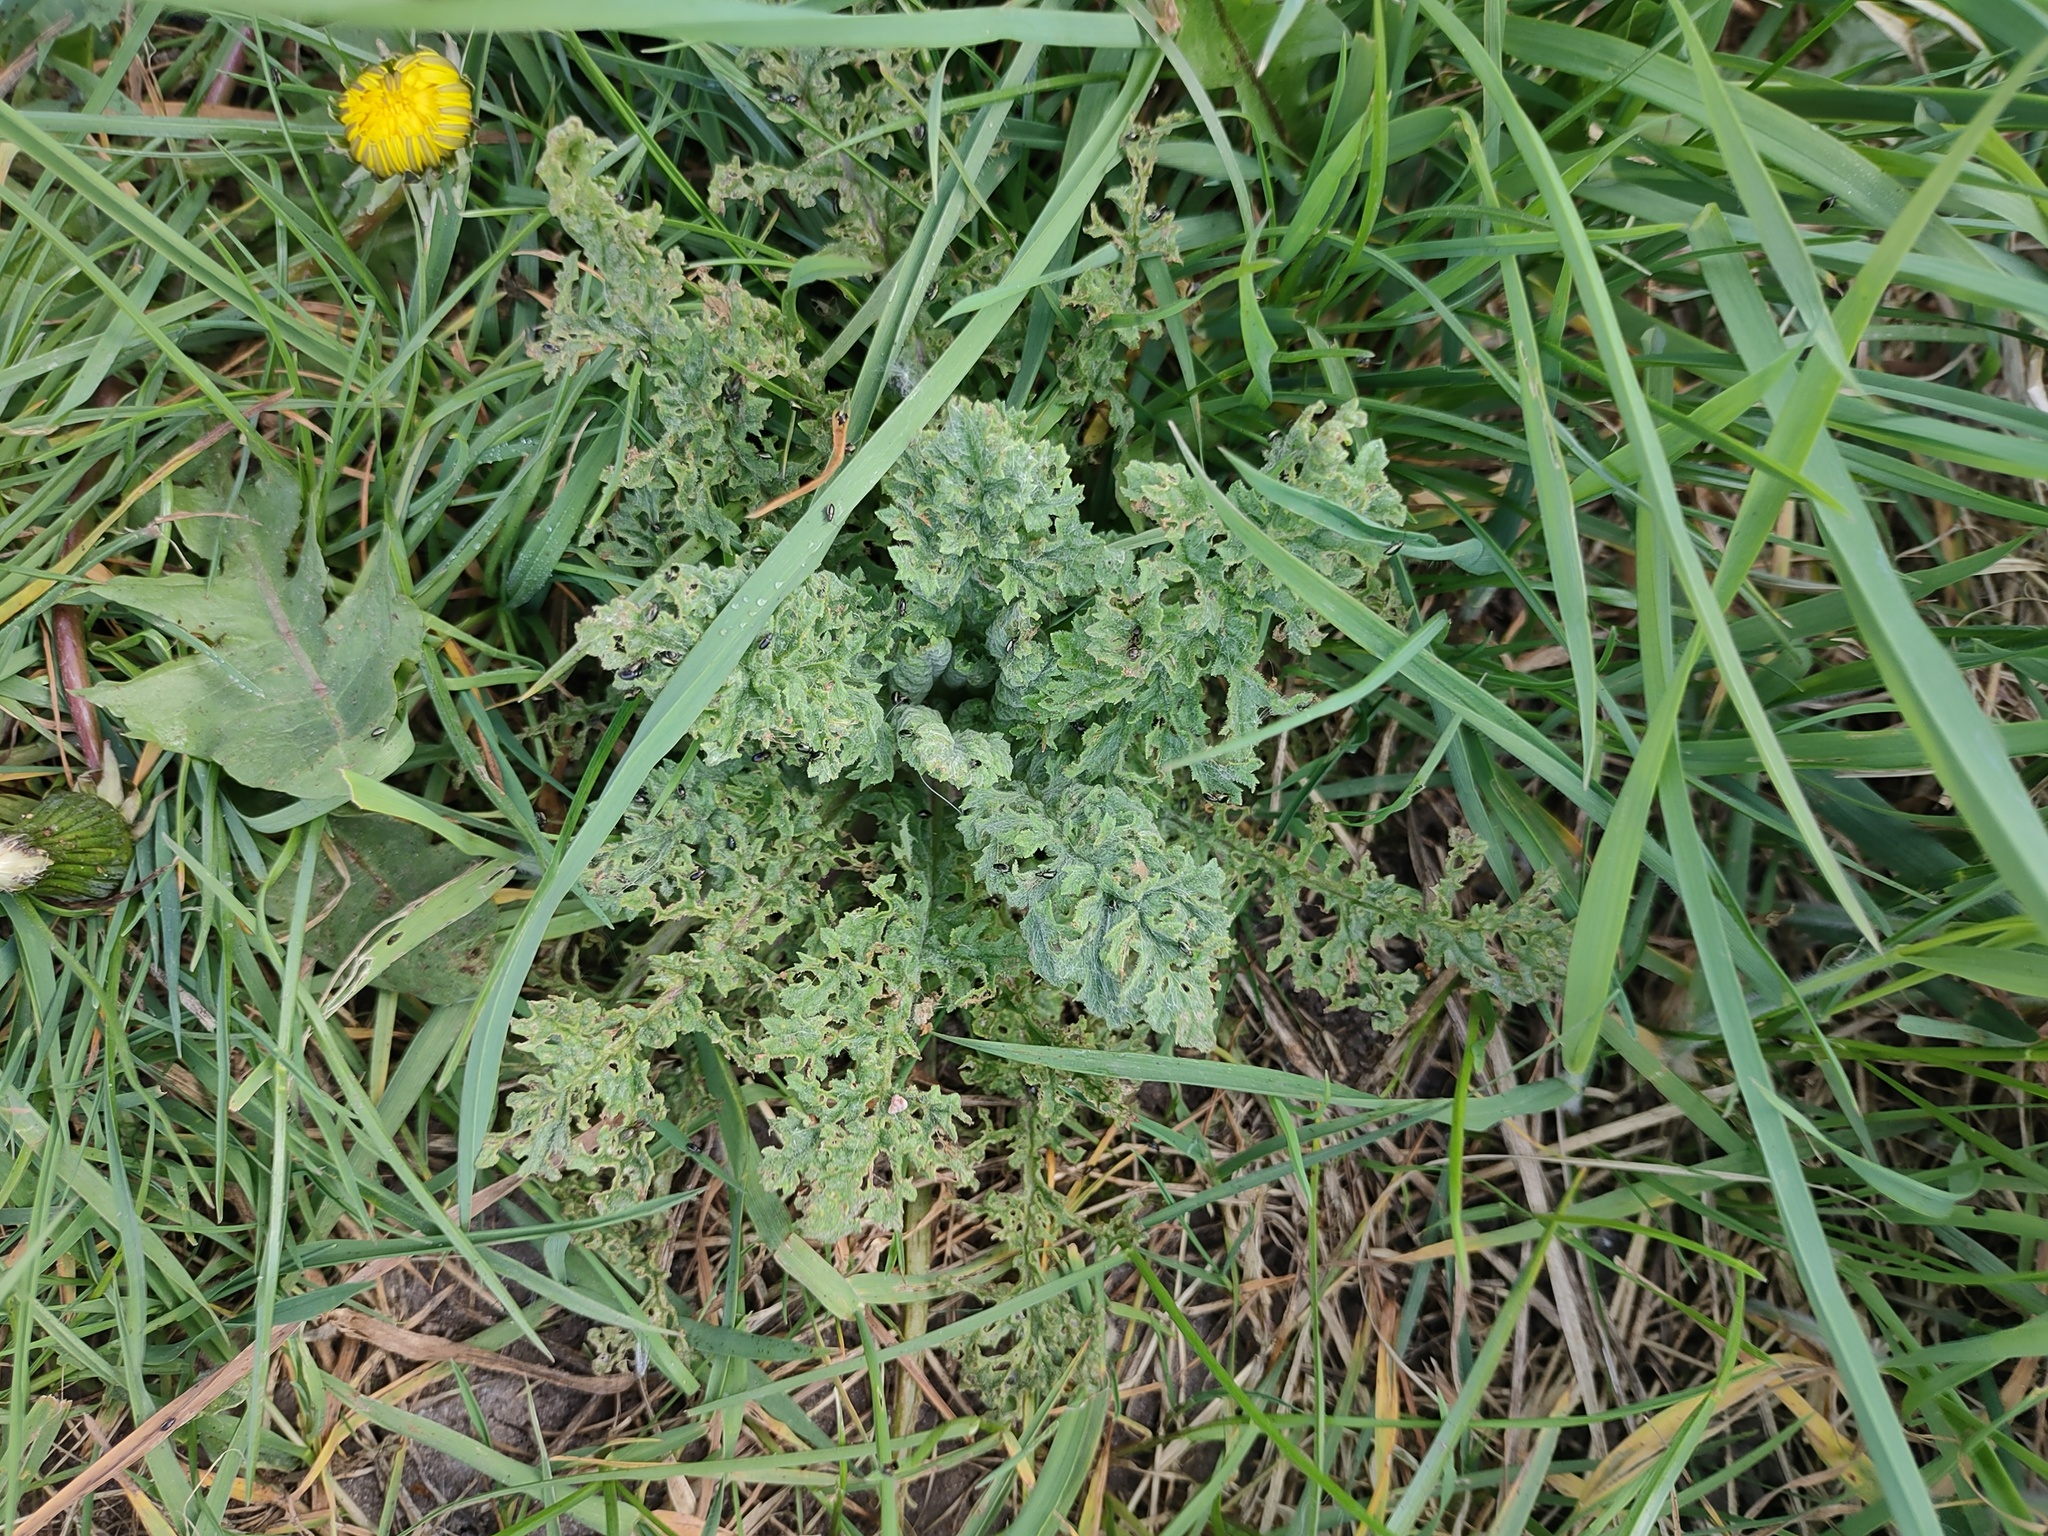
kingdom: Plantae
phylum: Tracheophyta
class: Magnoliopsida
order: Asterales
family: Asteraceae
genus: Jacobaea
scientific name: Jacobaea vulgaris
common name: Stinking willie
